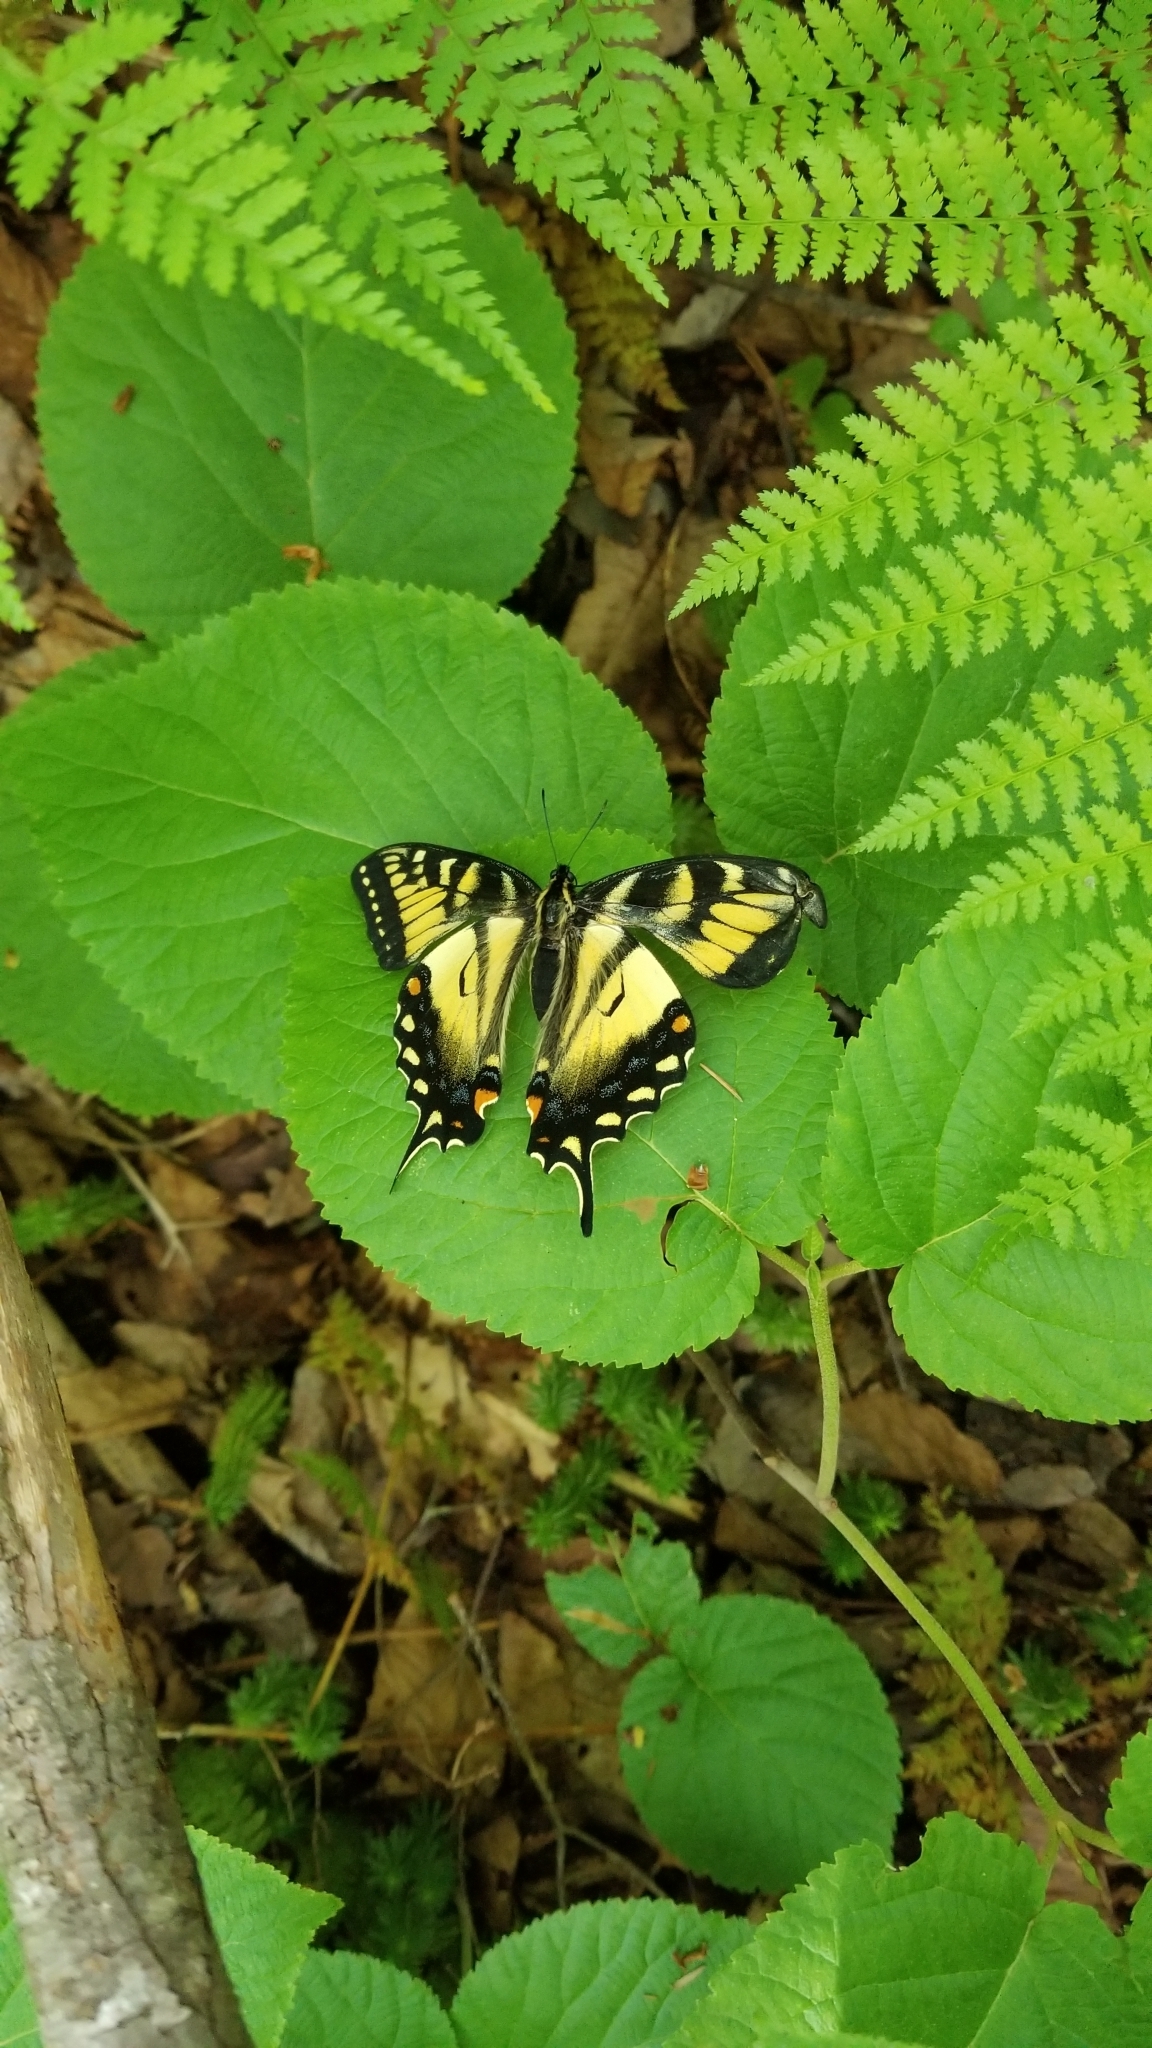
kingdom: Animalia
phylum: Arthropoda
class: Insecta
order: Lepidoptera
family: Papilionidae
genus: Papilio
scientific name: Papilio canadensis
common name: Canadian tiger swallowtail
